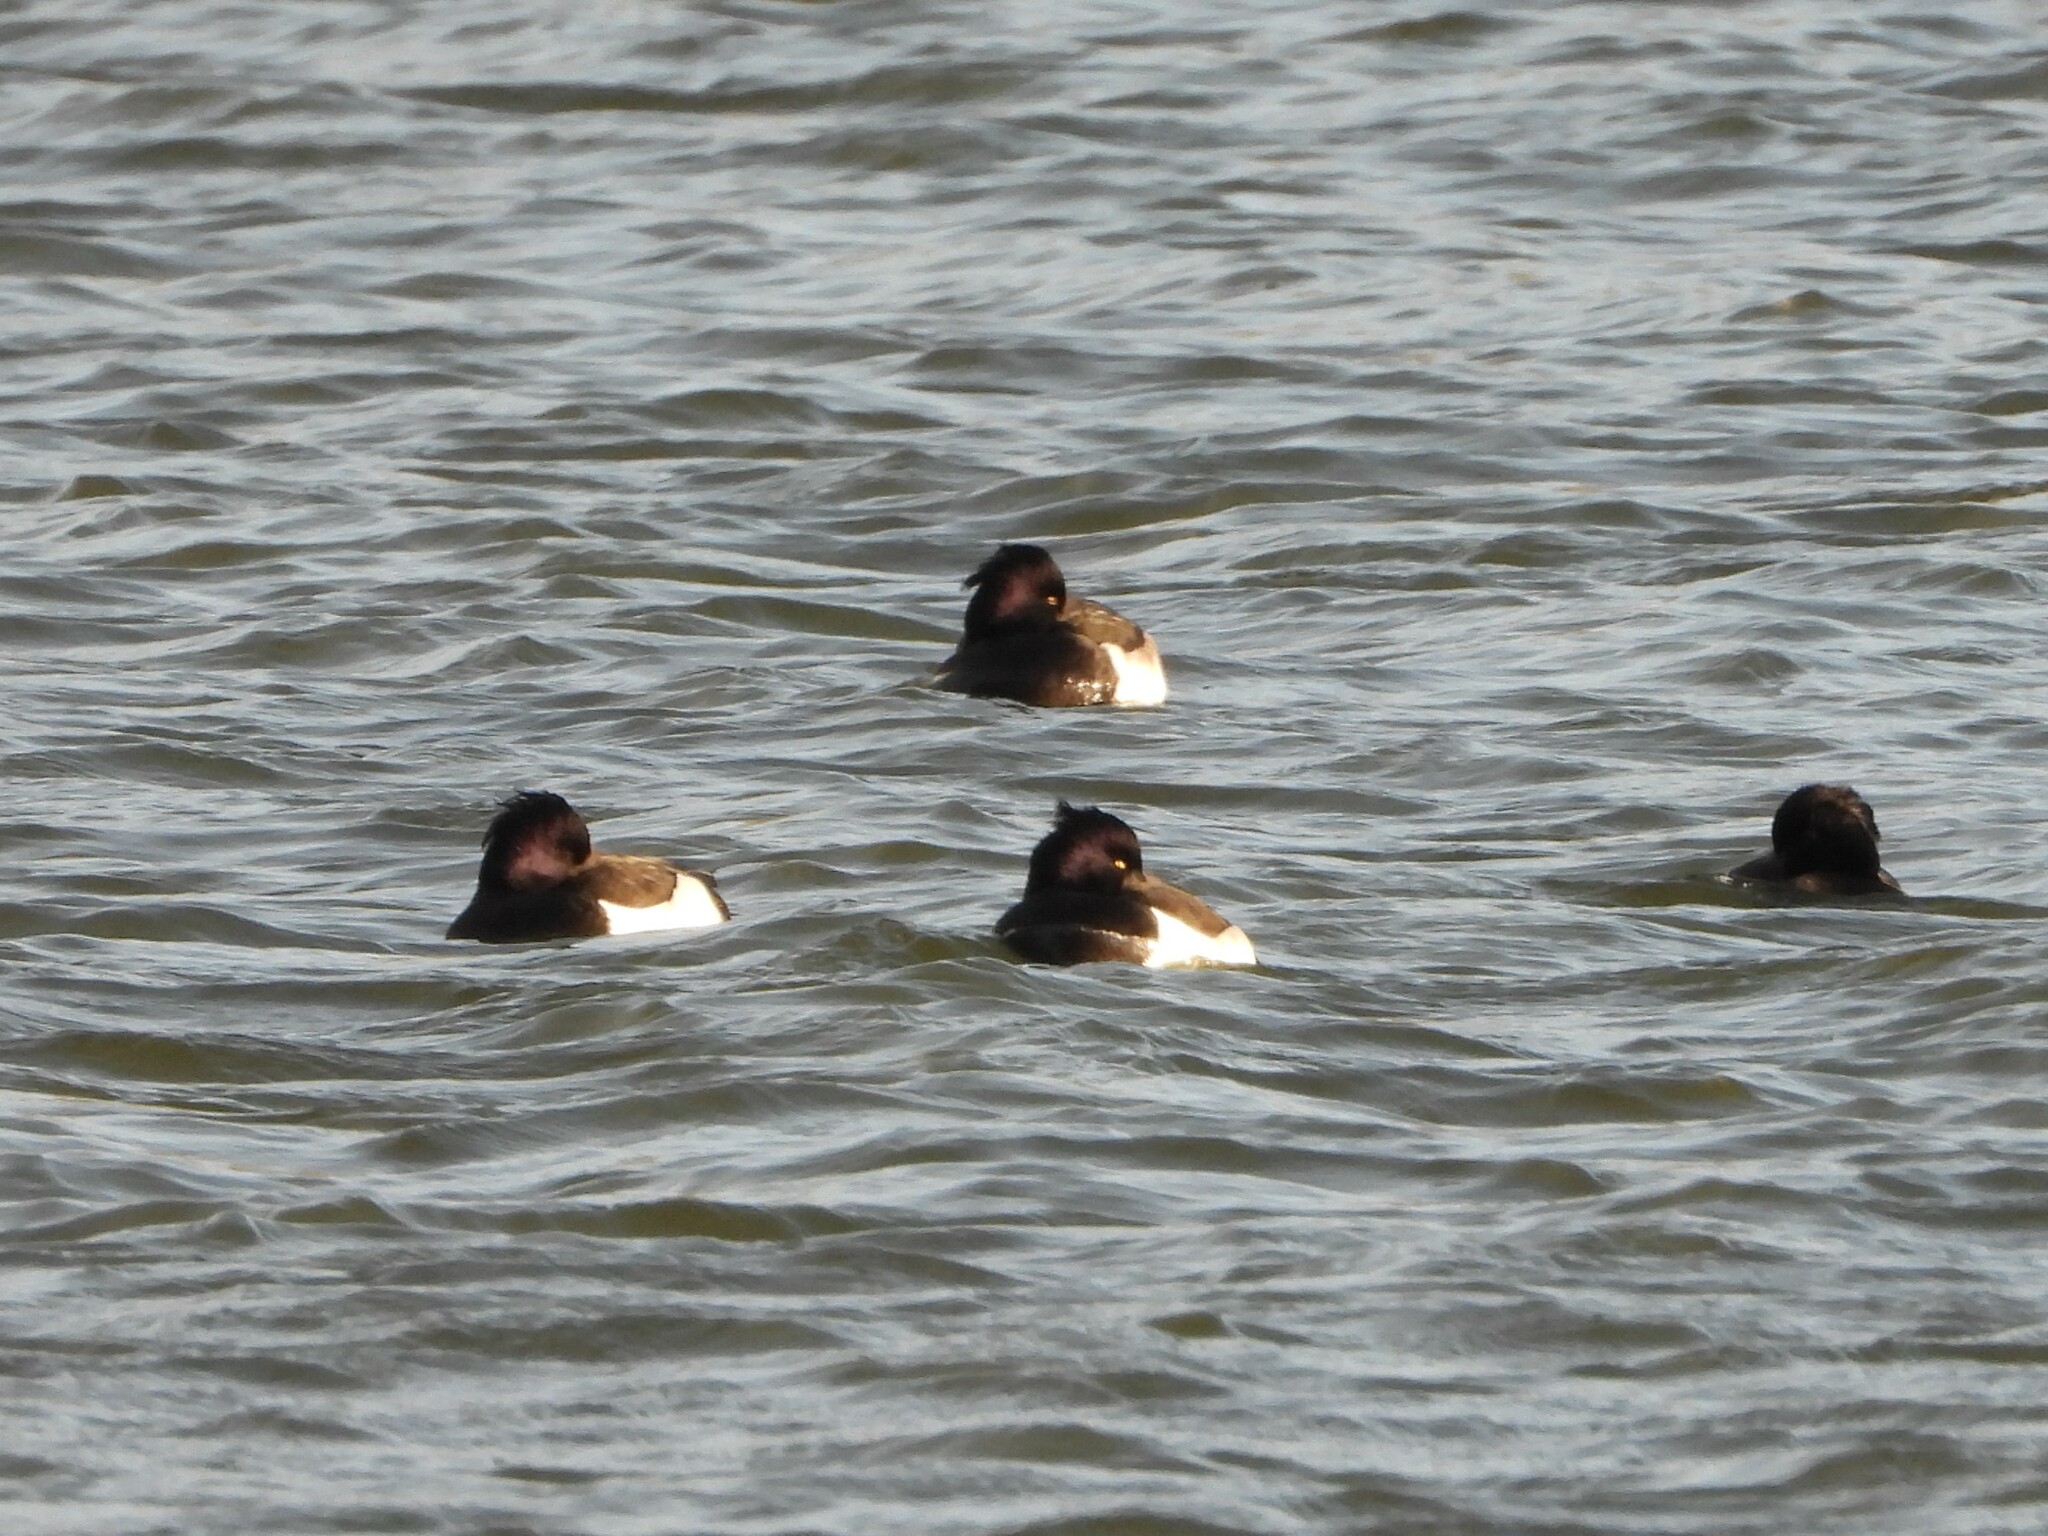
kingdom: Animalia
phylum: Chordata
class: Aves
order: Anseriformes
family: Anatidae
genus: Aythya
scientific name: Aythya fuligula
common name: Tufted duck
